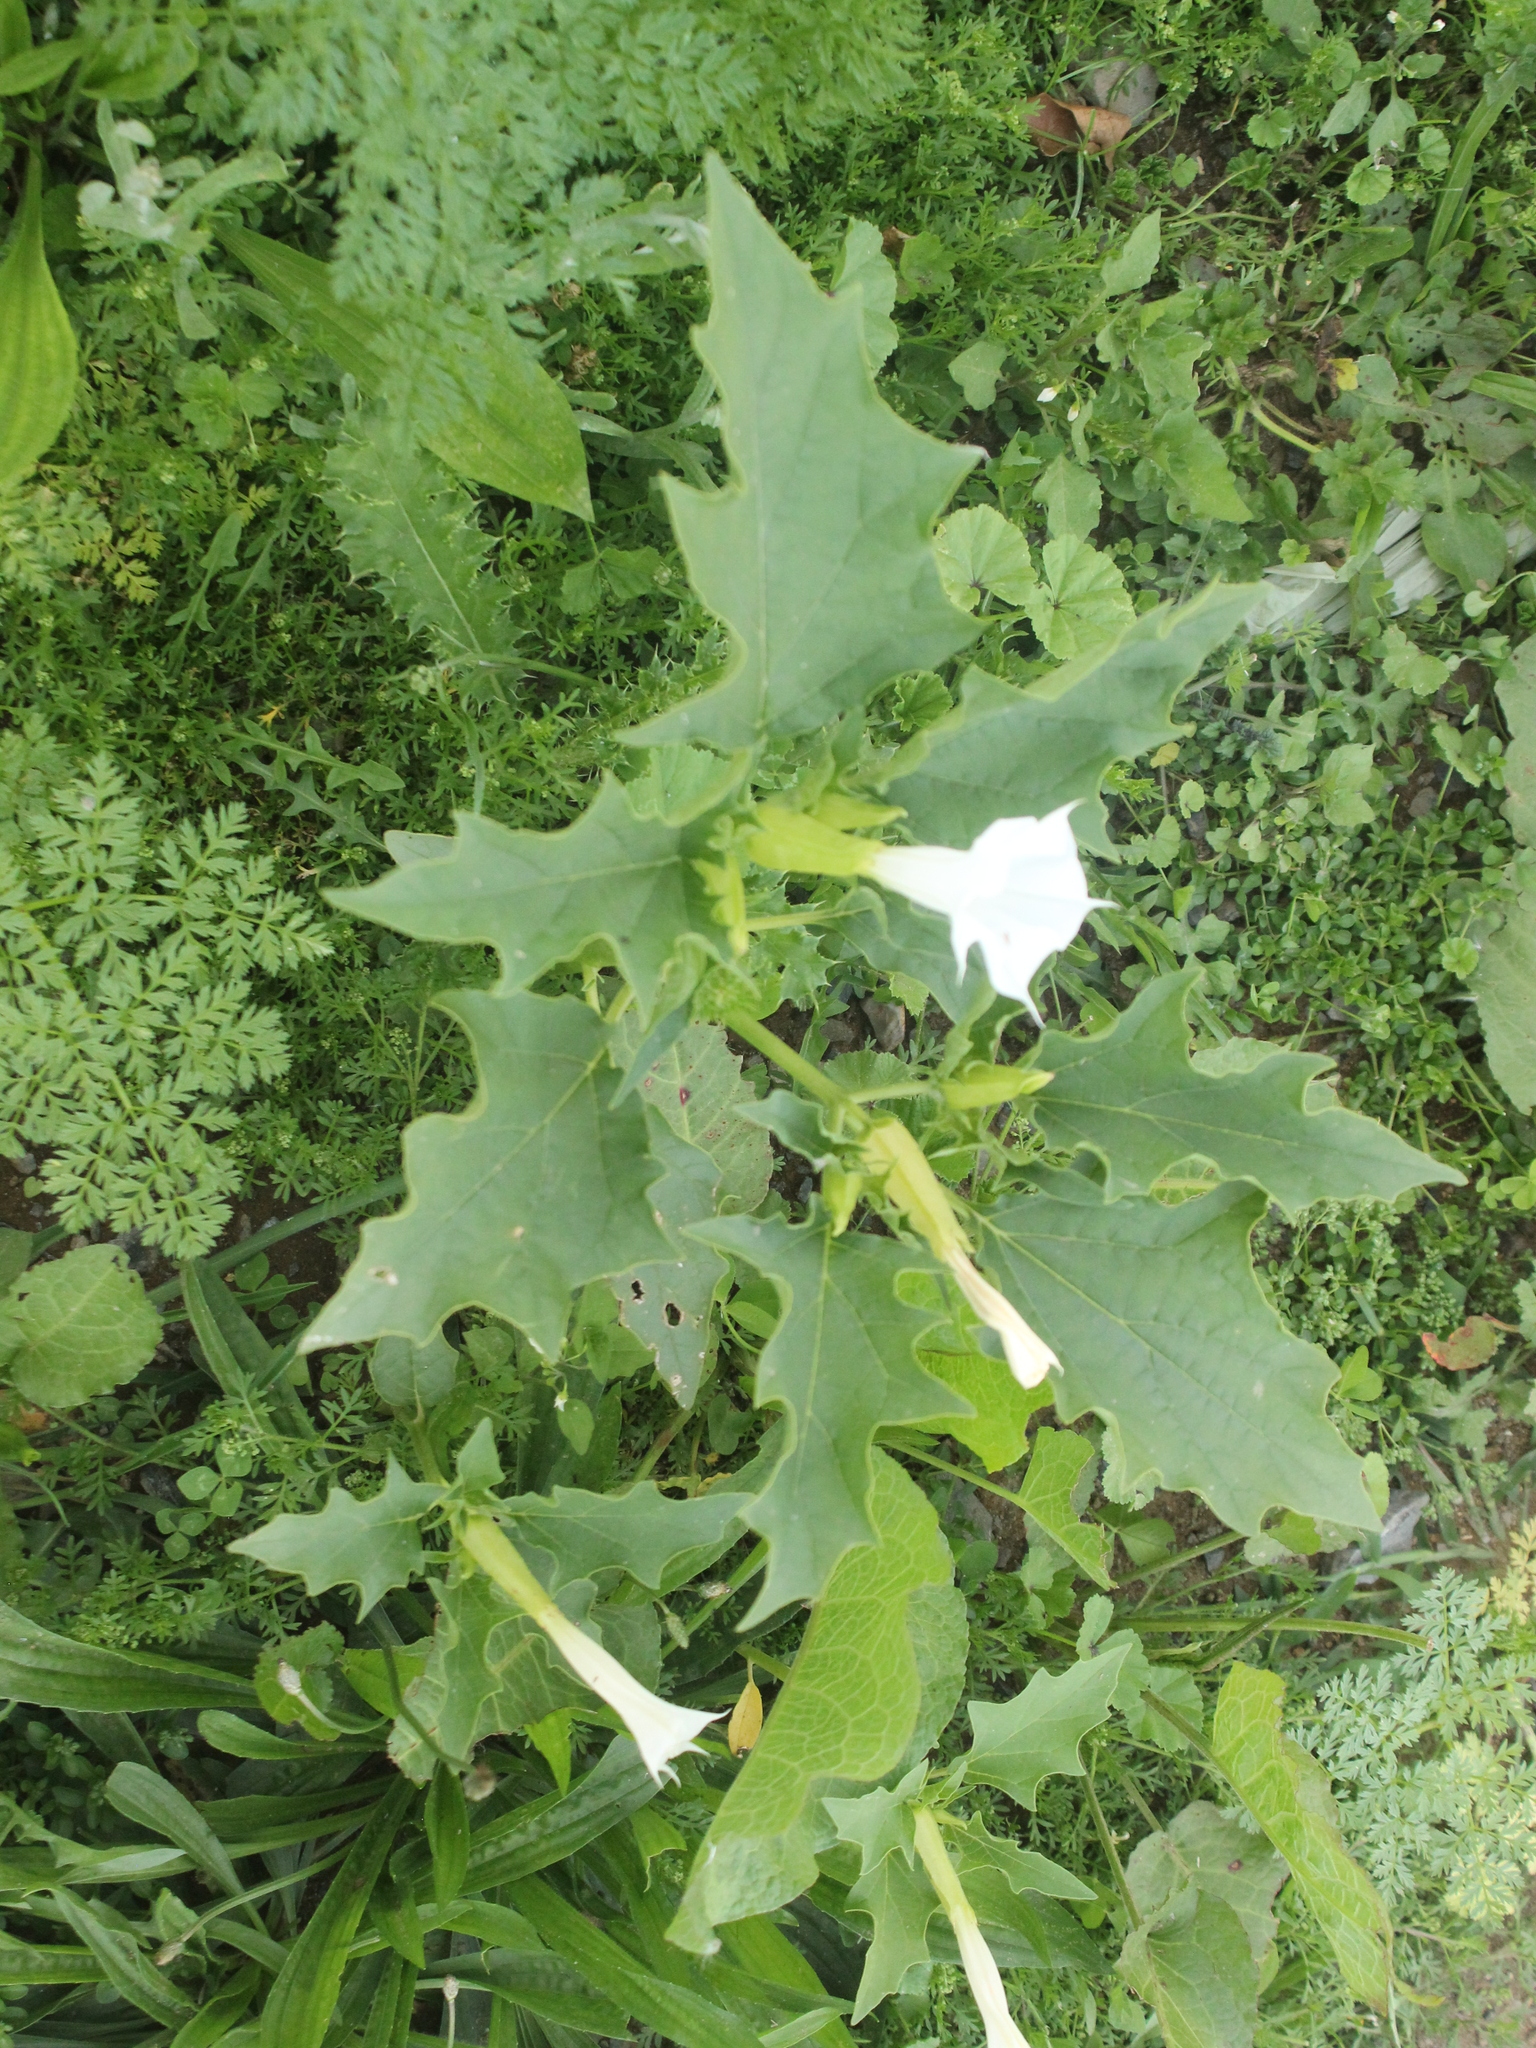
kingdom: Plantae
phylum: Tracheophyta
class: Magnoliopsida
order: Solanales
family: Solanaceae
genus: Datura
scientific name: Datura stramonium
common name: Thorn-apple
